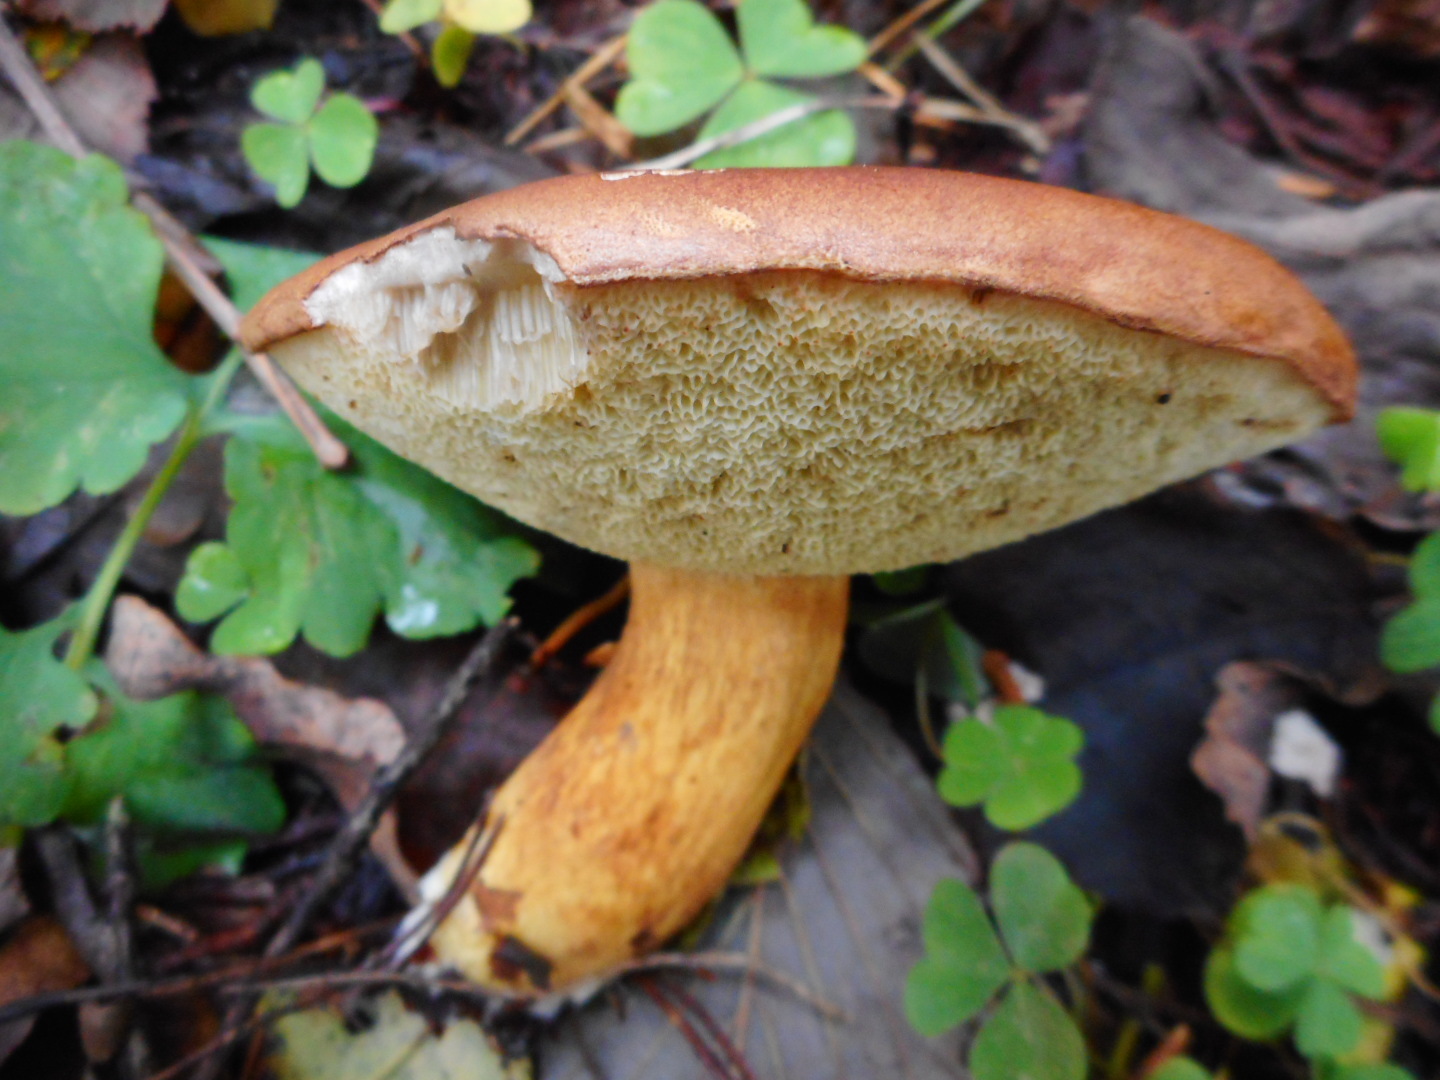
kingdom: Fungi
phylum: Basidiomycota
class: Agaricomycetes
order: Boletales
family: Boletaceae
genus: Imleria
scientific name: Imleria badia
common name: Bay bolete
